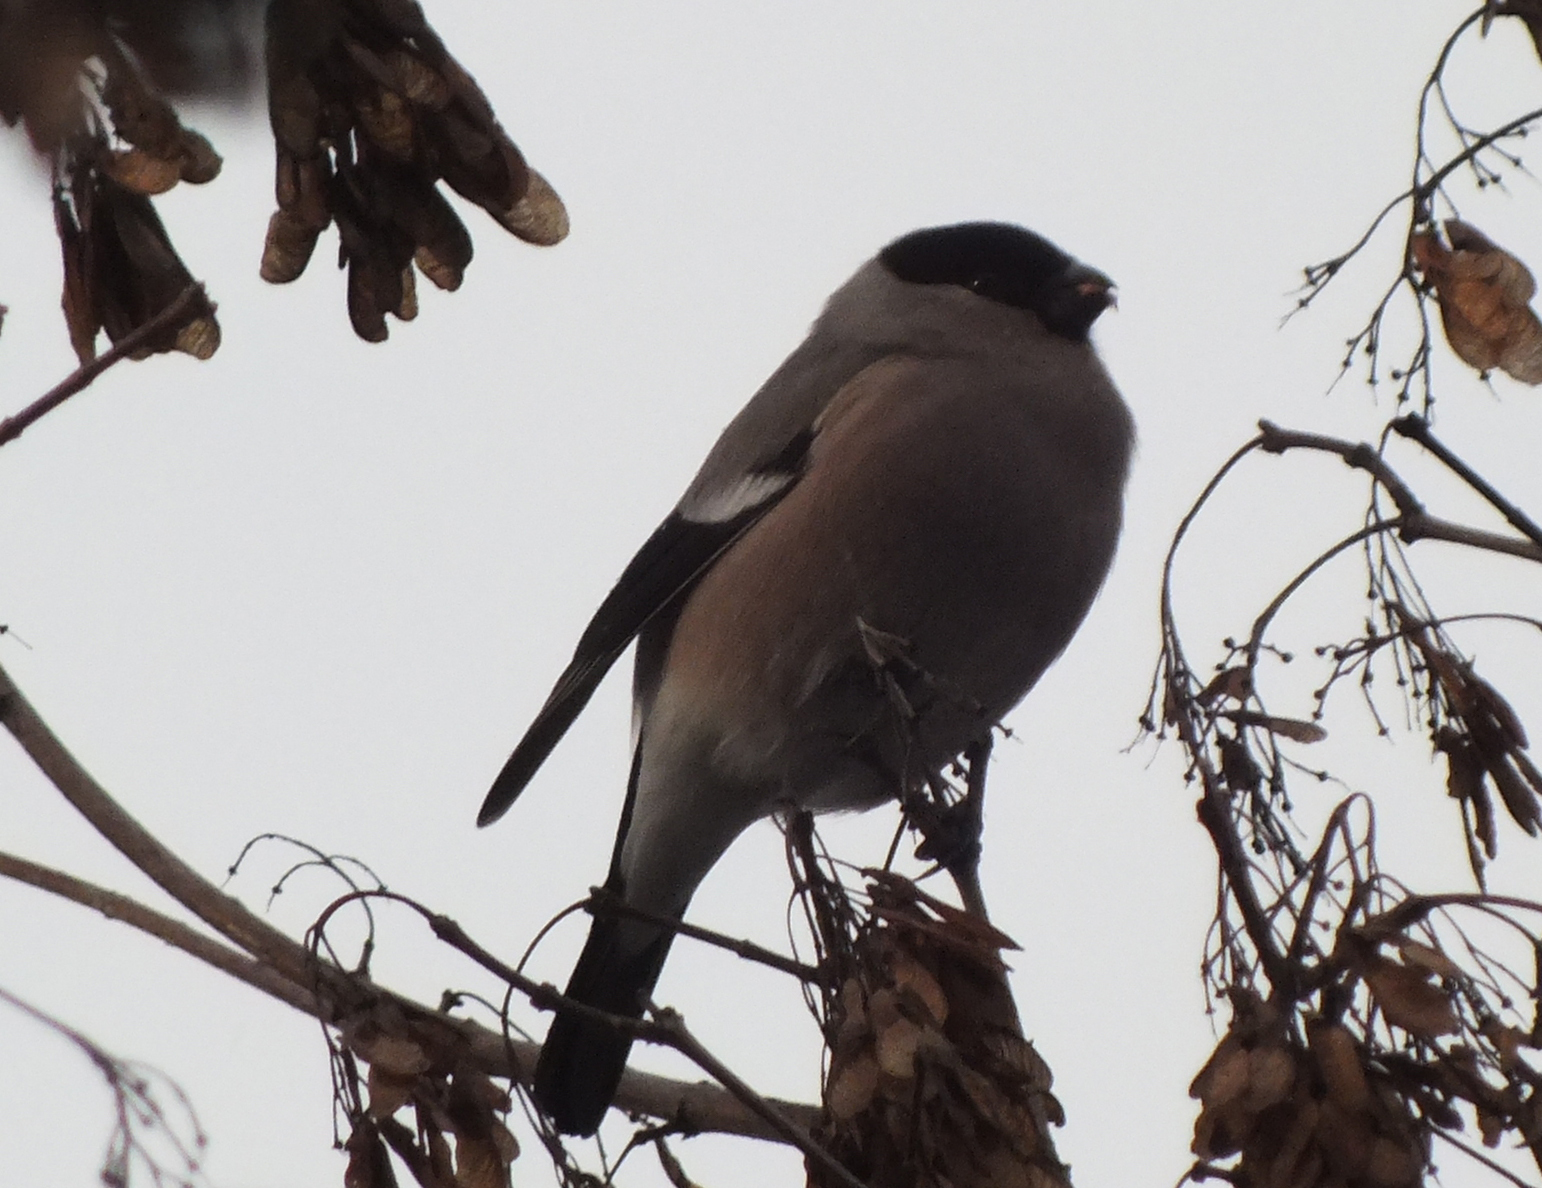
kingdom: Animalia
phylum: Chordata
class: Aves
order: Passeriformes
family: Fringillidae
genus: Pyrrhula
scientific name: Pyrrhula pyrrhula
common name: Eurasian bullfinch
